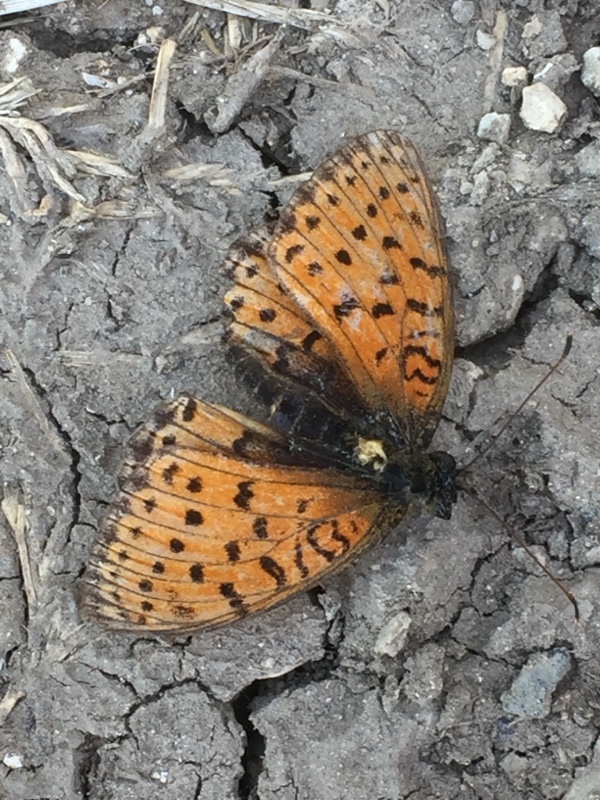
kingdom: Animalia
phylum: Arthropoda
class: Insecta
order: Lepidoptera
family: Nymphalidae
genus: Brenthis
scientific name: Brenthis hecate
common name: Twin-spot fritillary
